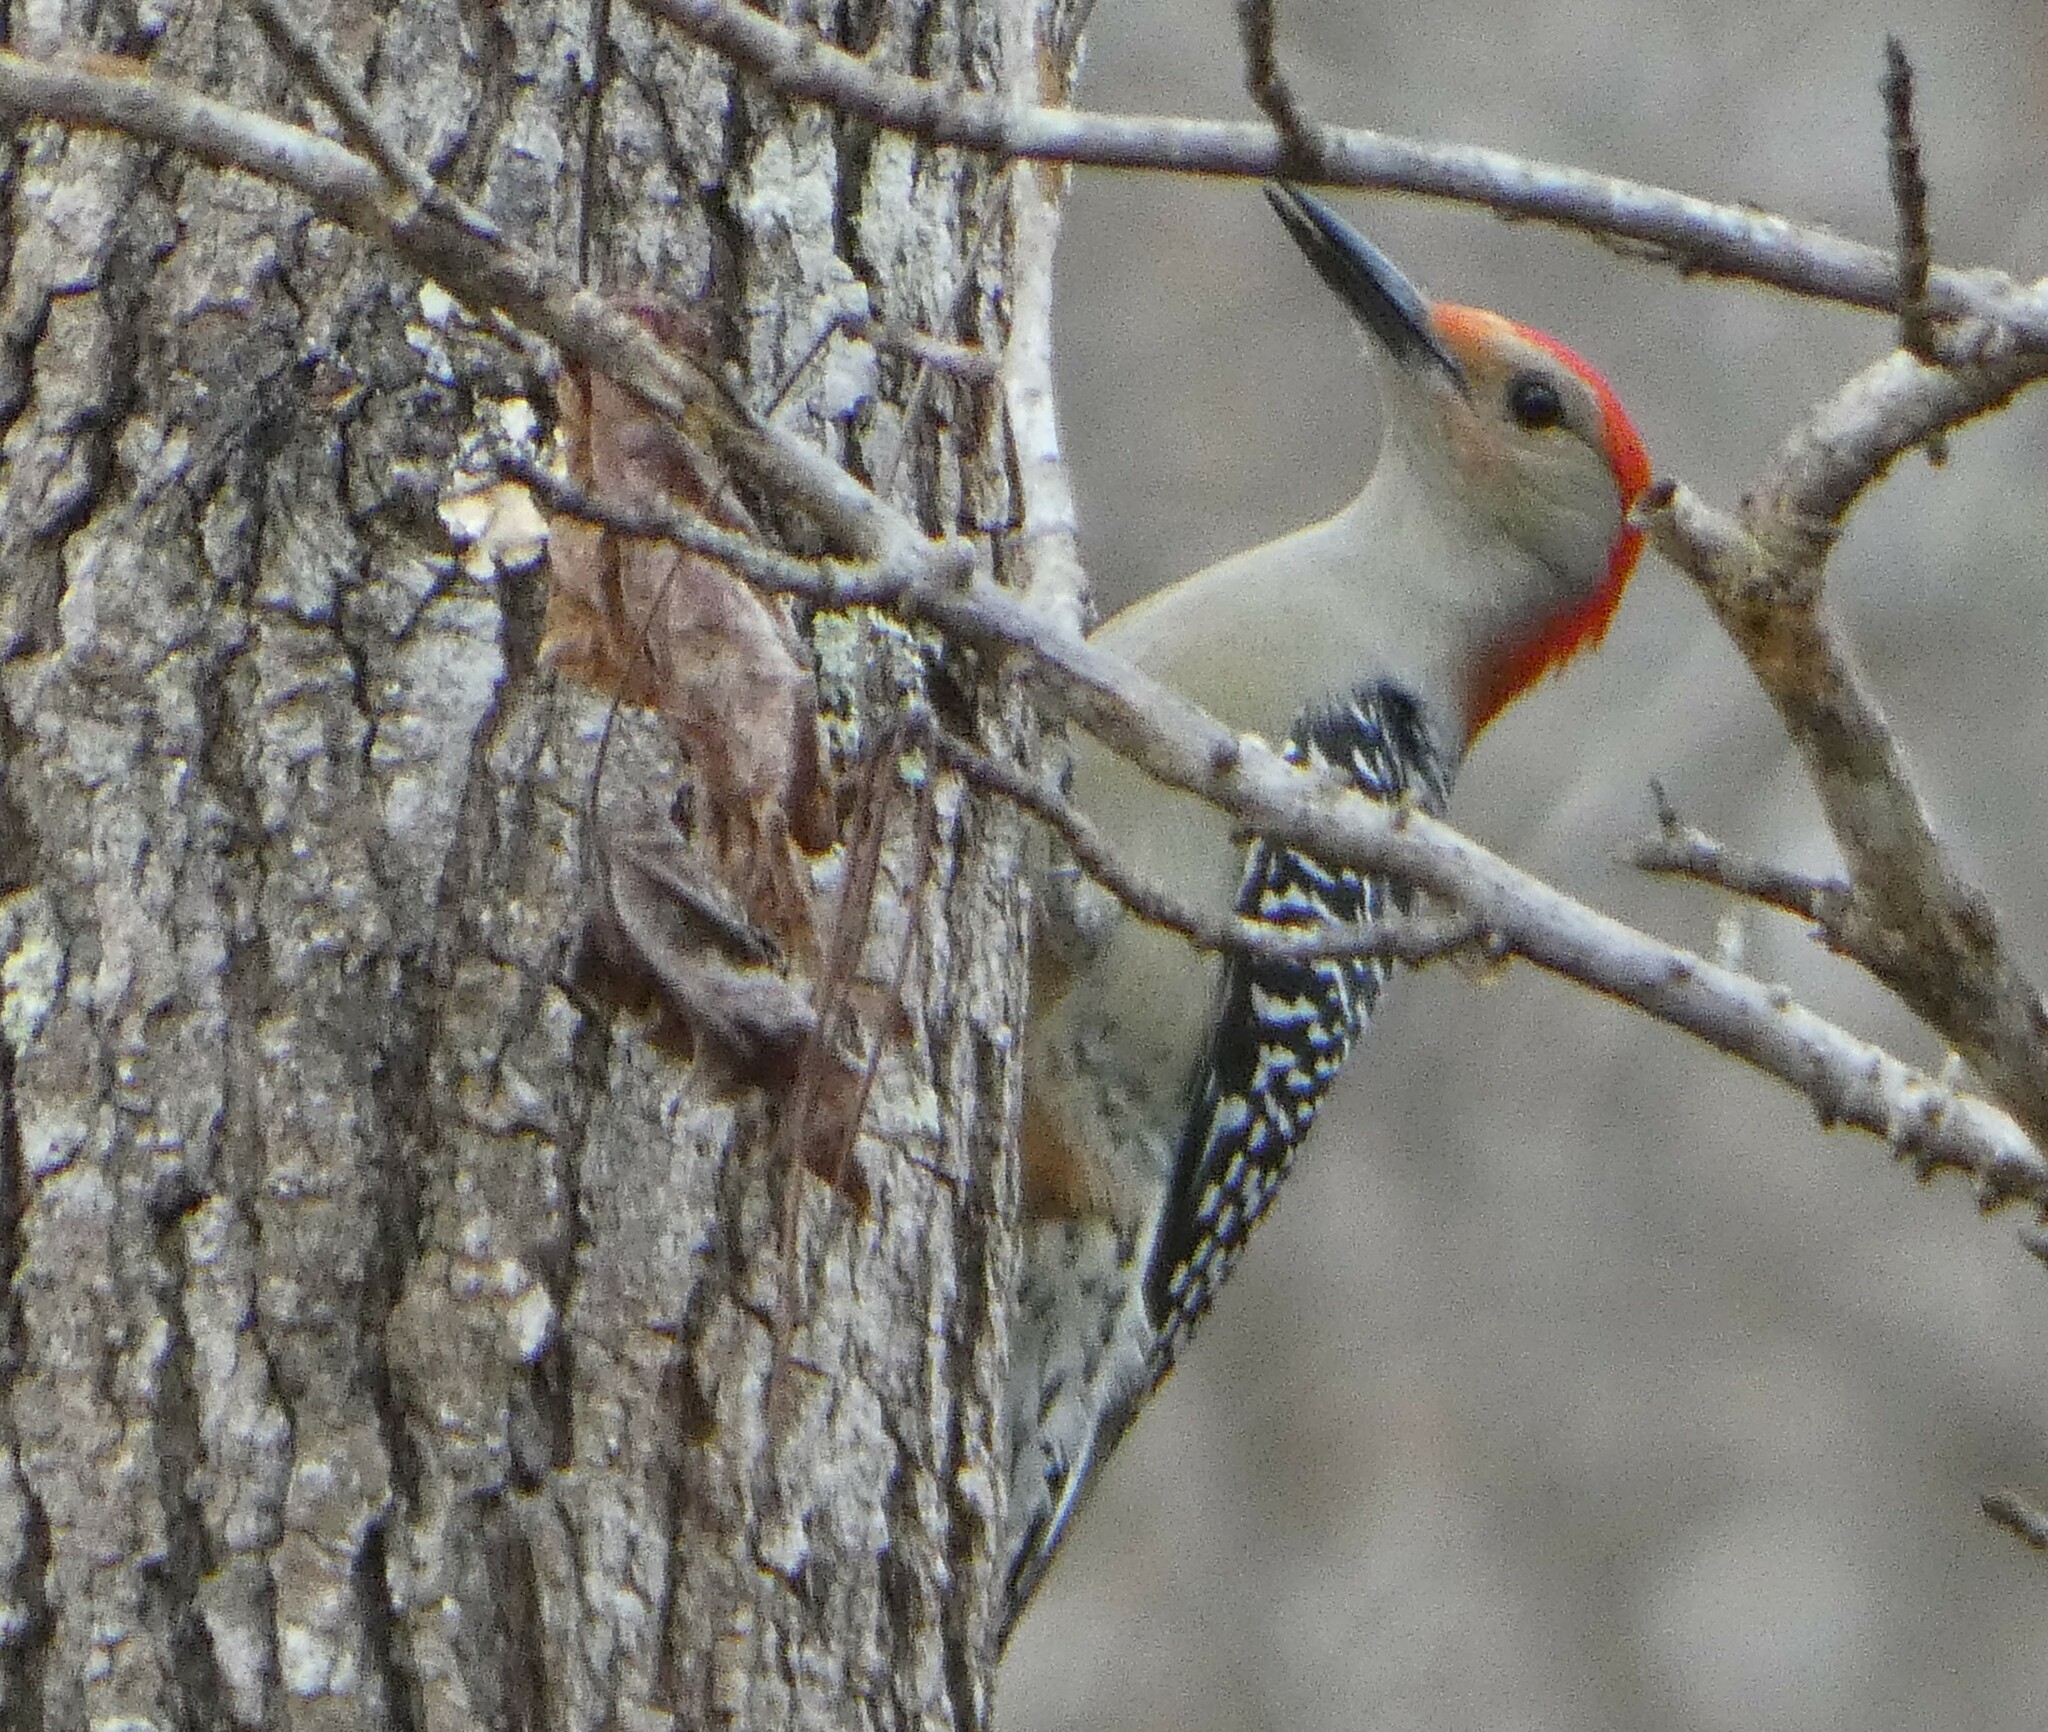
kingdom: Animalia
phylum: Chordata
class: Aves
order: Piciformes
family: Picidae
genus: Melanerpes
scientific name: Melanerpes carolinus
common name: Red-bellied woodpecker
